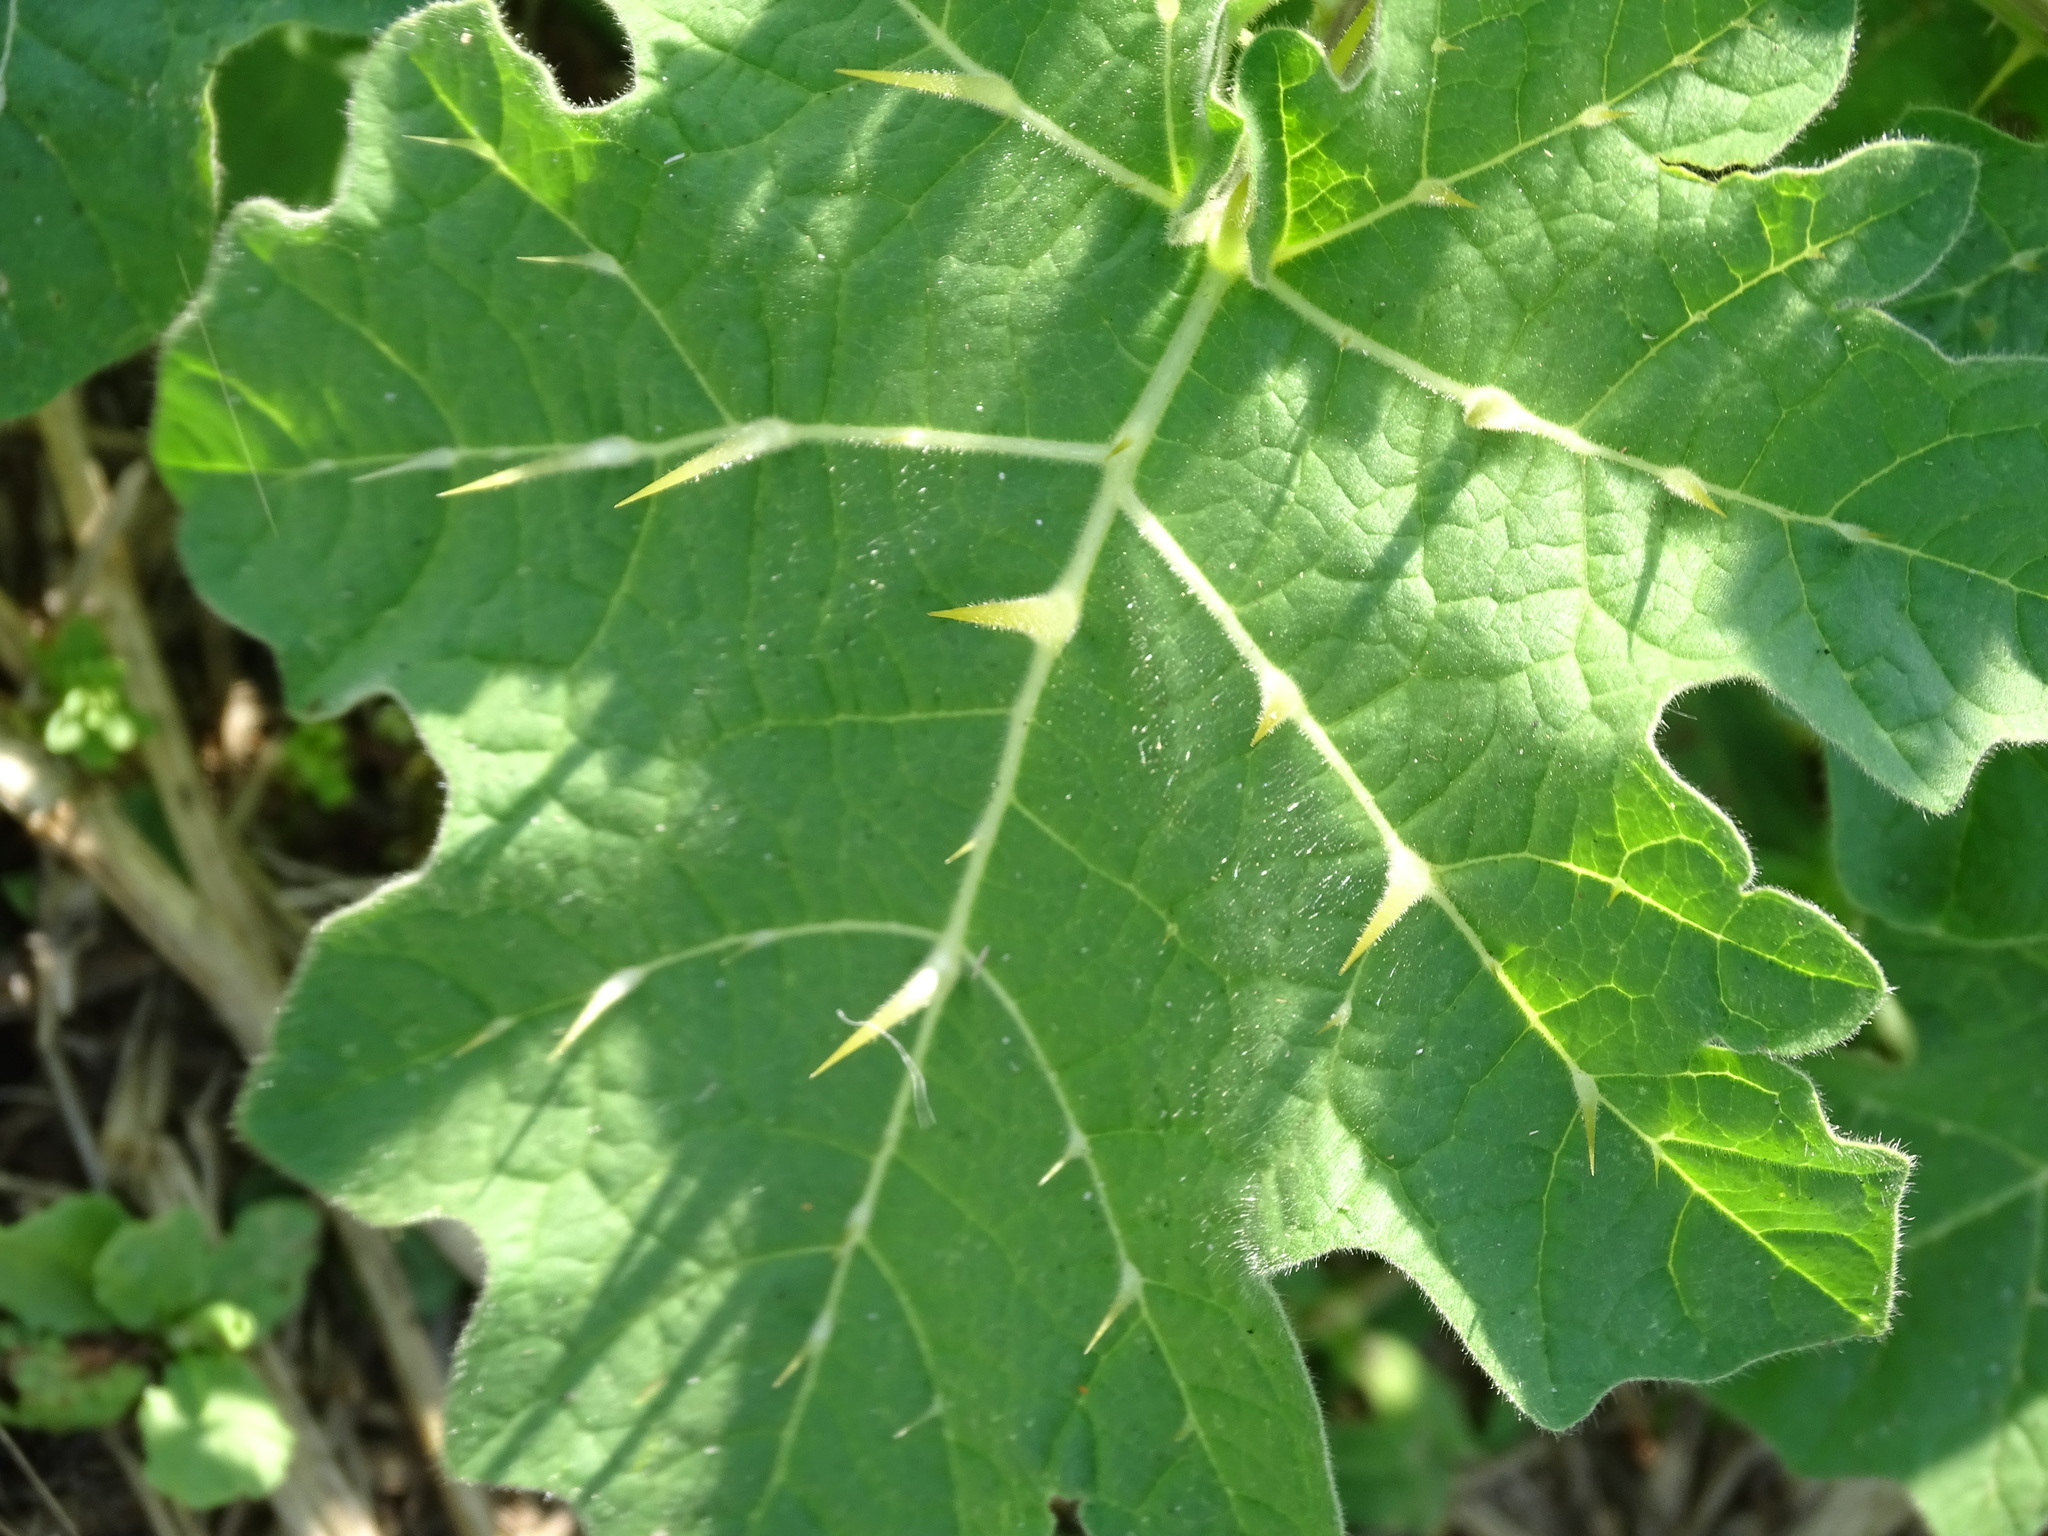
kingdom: Plantae
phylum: Tracheophyta
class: Magnoliopsida
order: Solanales
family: Solanaceae
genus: Solanum
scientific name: Solanum viarum
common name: Tropical soda apple
